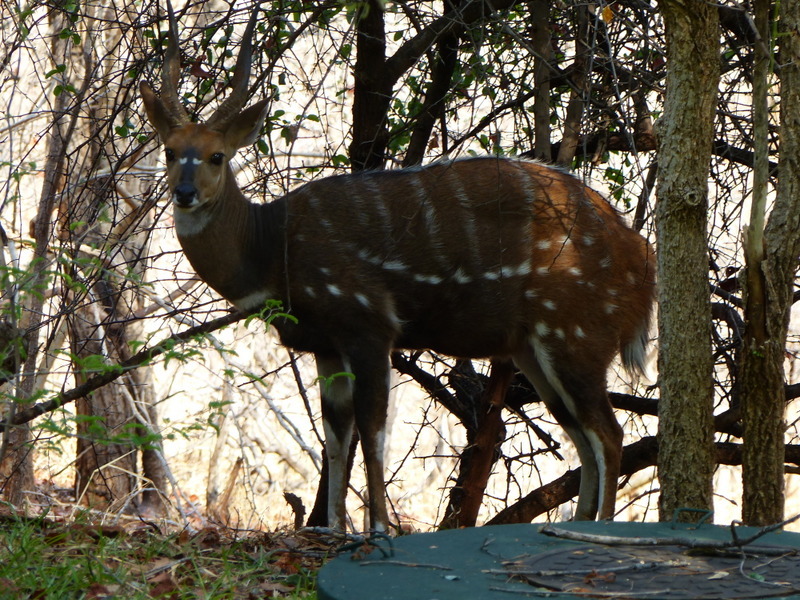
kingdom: Animalia
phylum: Chordata
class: Mammalia
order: Artiodactyla
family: Bovidae
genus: Tragelaphus
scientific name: Tragelaphus scriptus
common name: Bushbuck
